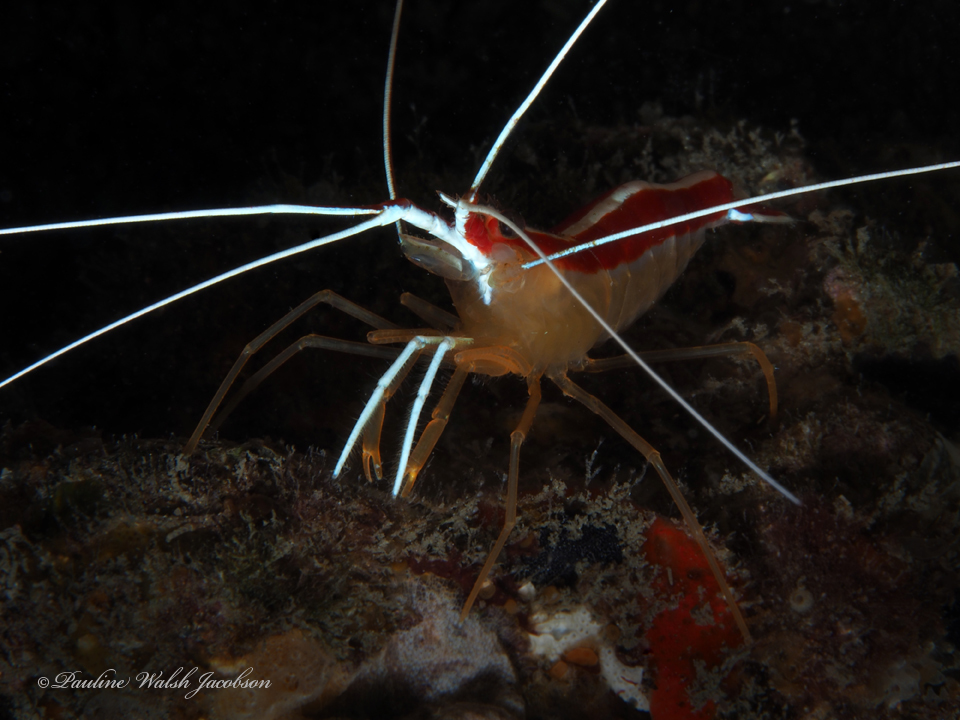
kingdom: Animalia
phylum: Arthropoda
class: Malacostraca
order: Decapoda
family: Lysmatidae
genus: Lysmata
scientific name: Lysmata grabhami
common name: Scarlet-striped cleaning shrimp
